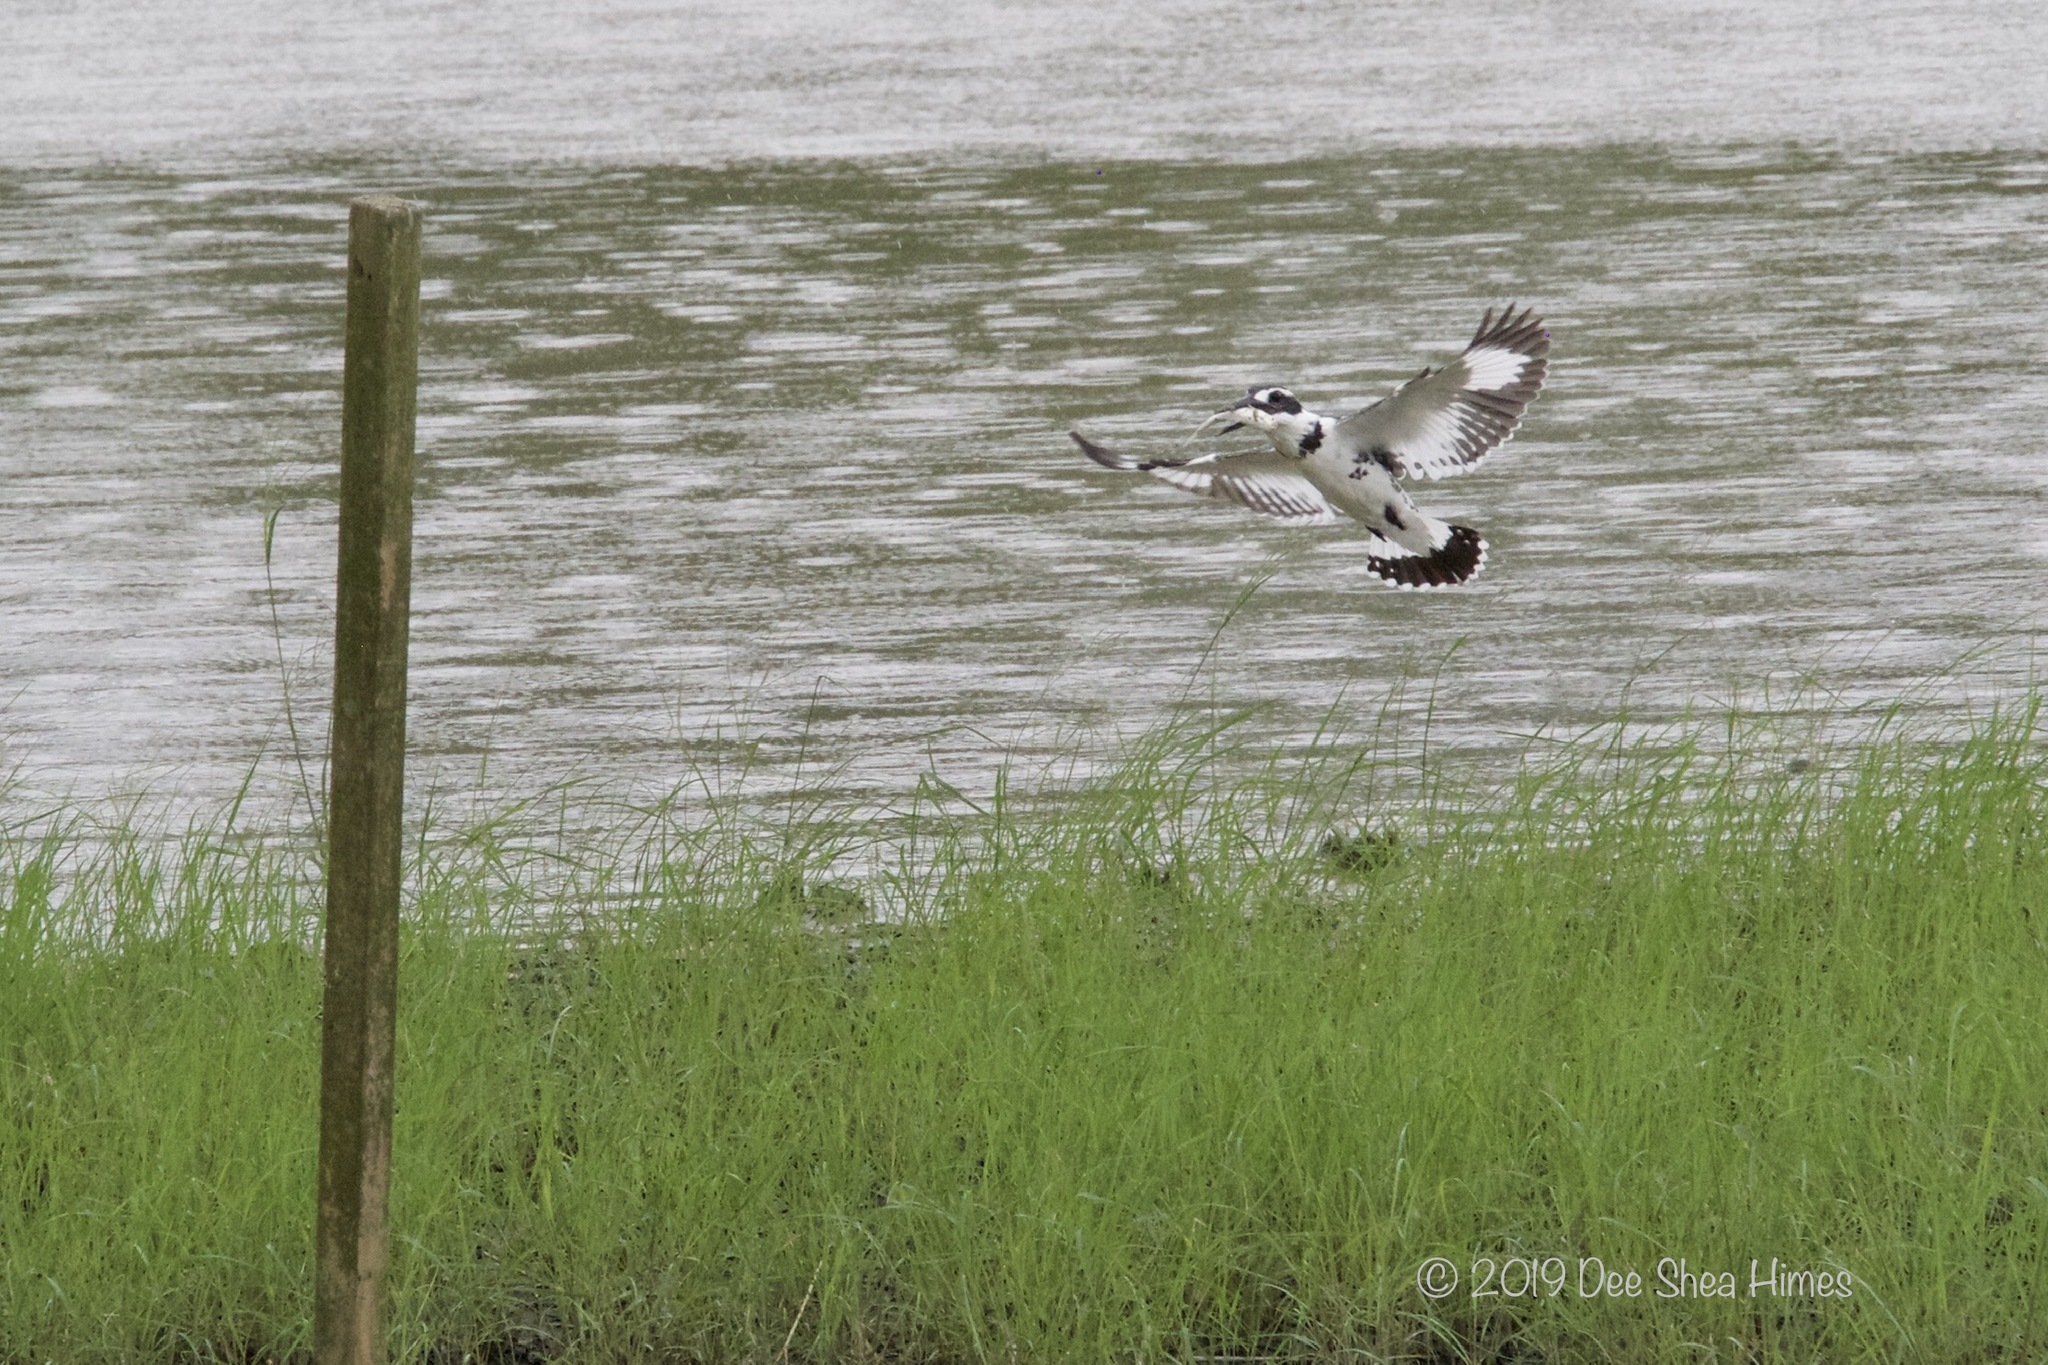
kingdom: Animalia
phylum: Chordata
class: Aves
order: Coraciiformes
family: Alcedinidae
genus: Ceryle
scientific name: Ceryle rudis
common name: Pied kingfisher
